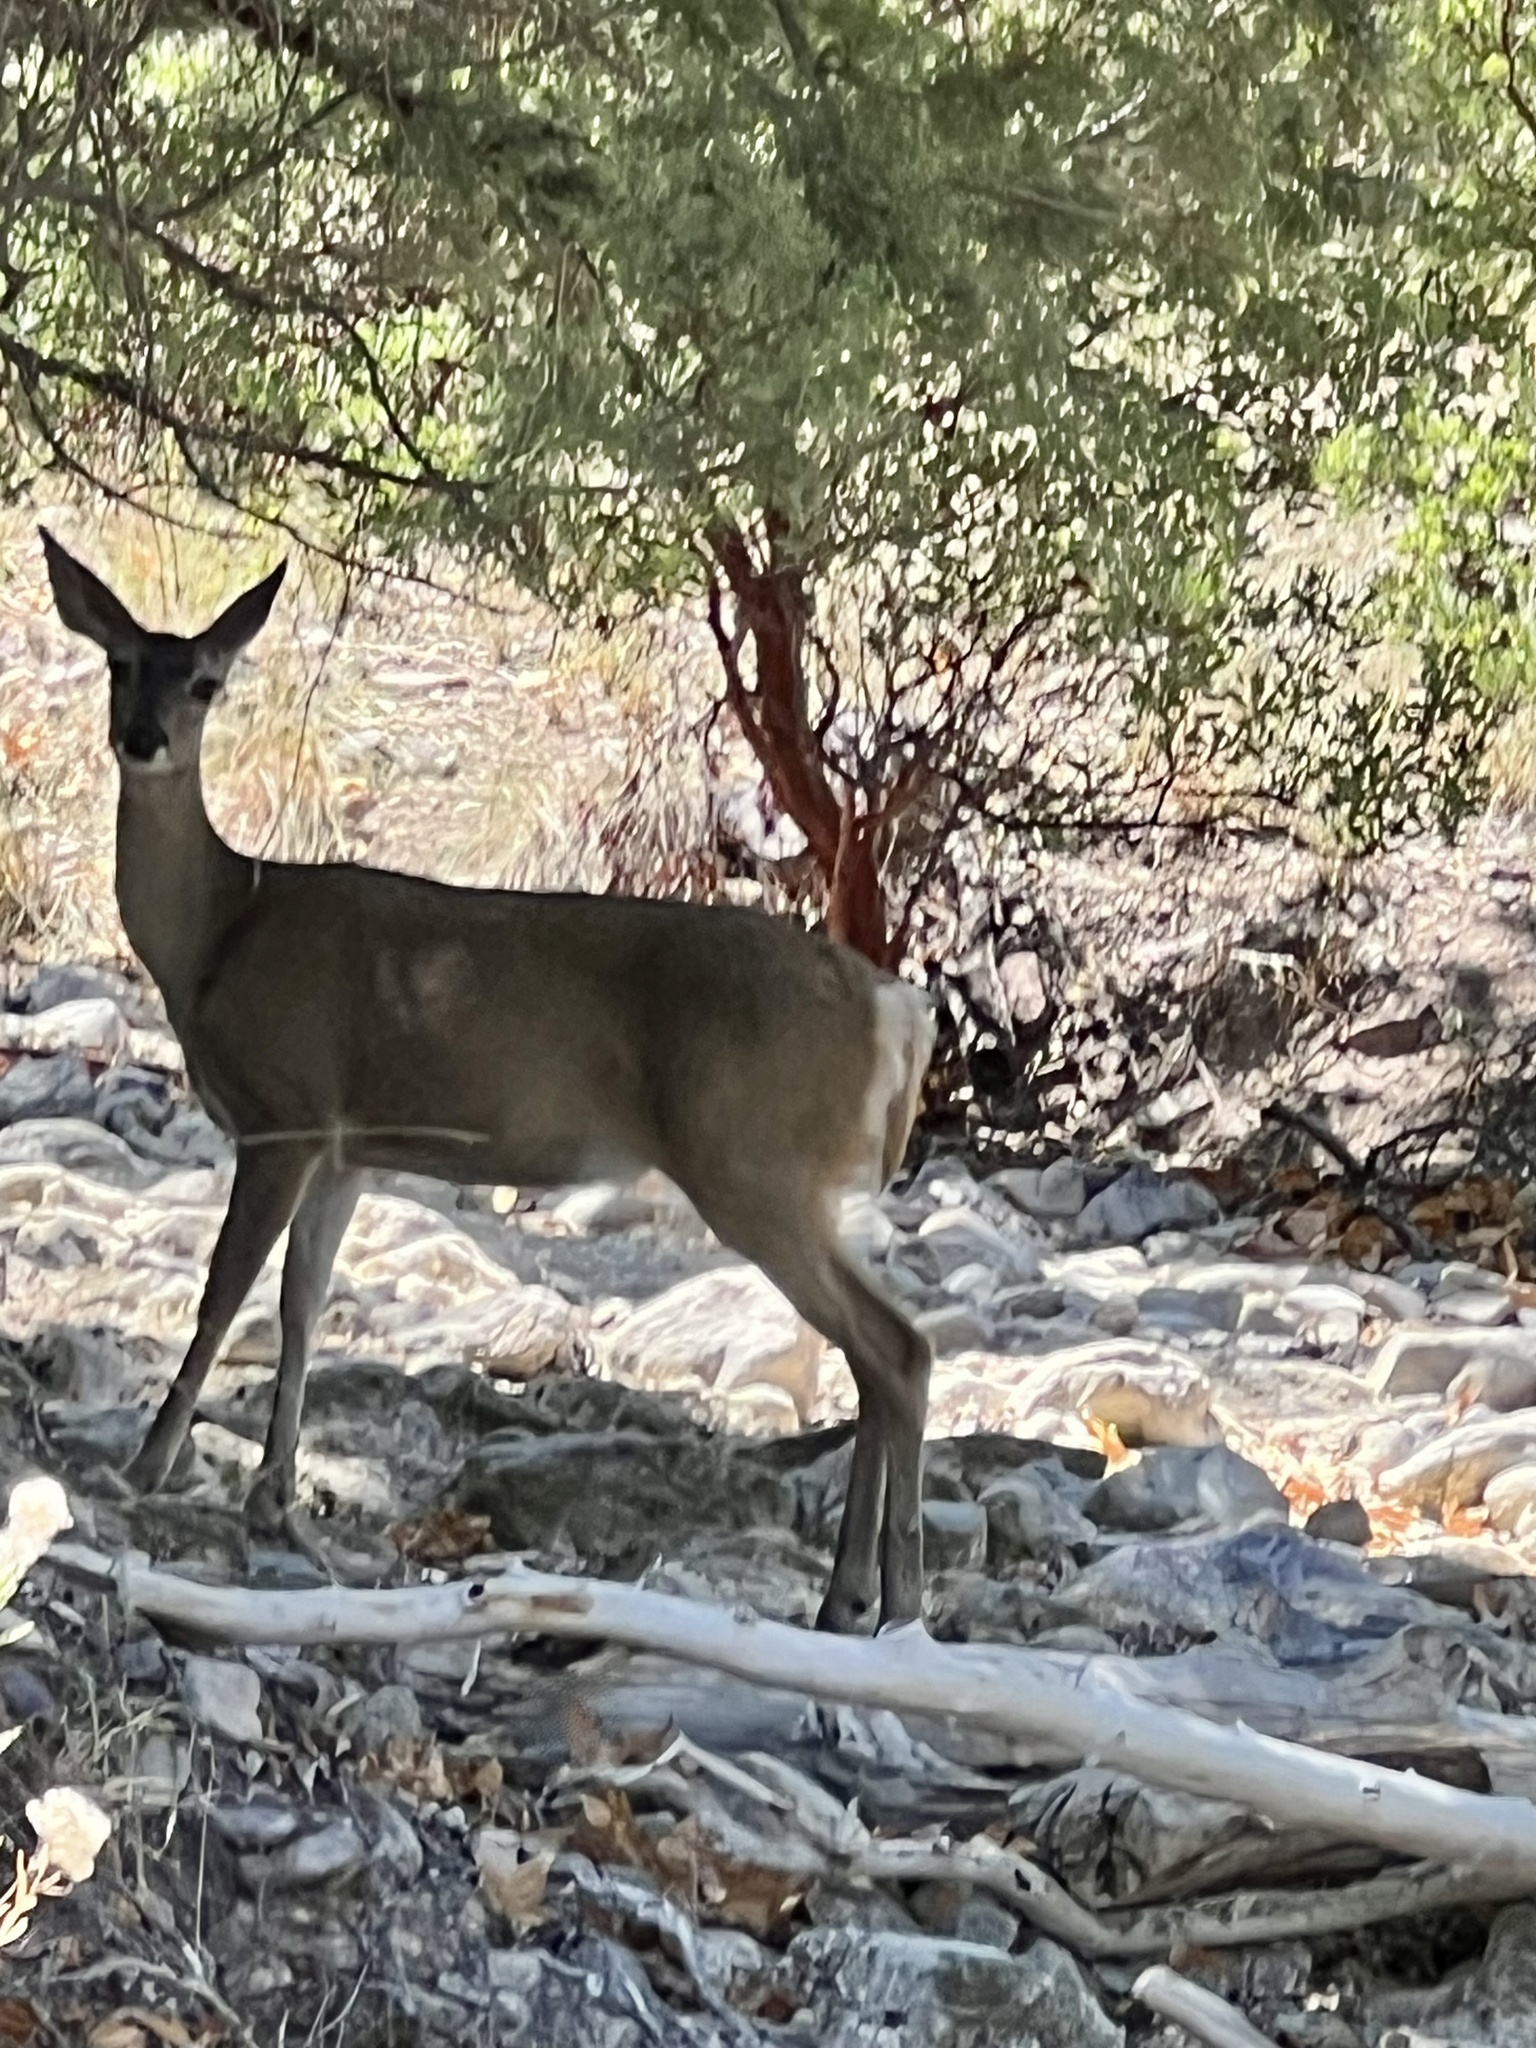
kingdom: Animalia
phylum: Chordata
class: Mammalia
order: Artiodactyla
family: Cervidae
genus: Odocoileus
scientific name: Odocoileus virginianus
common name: White-tailed deer
